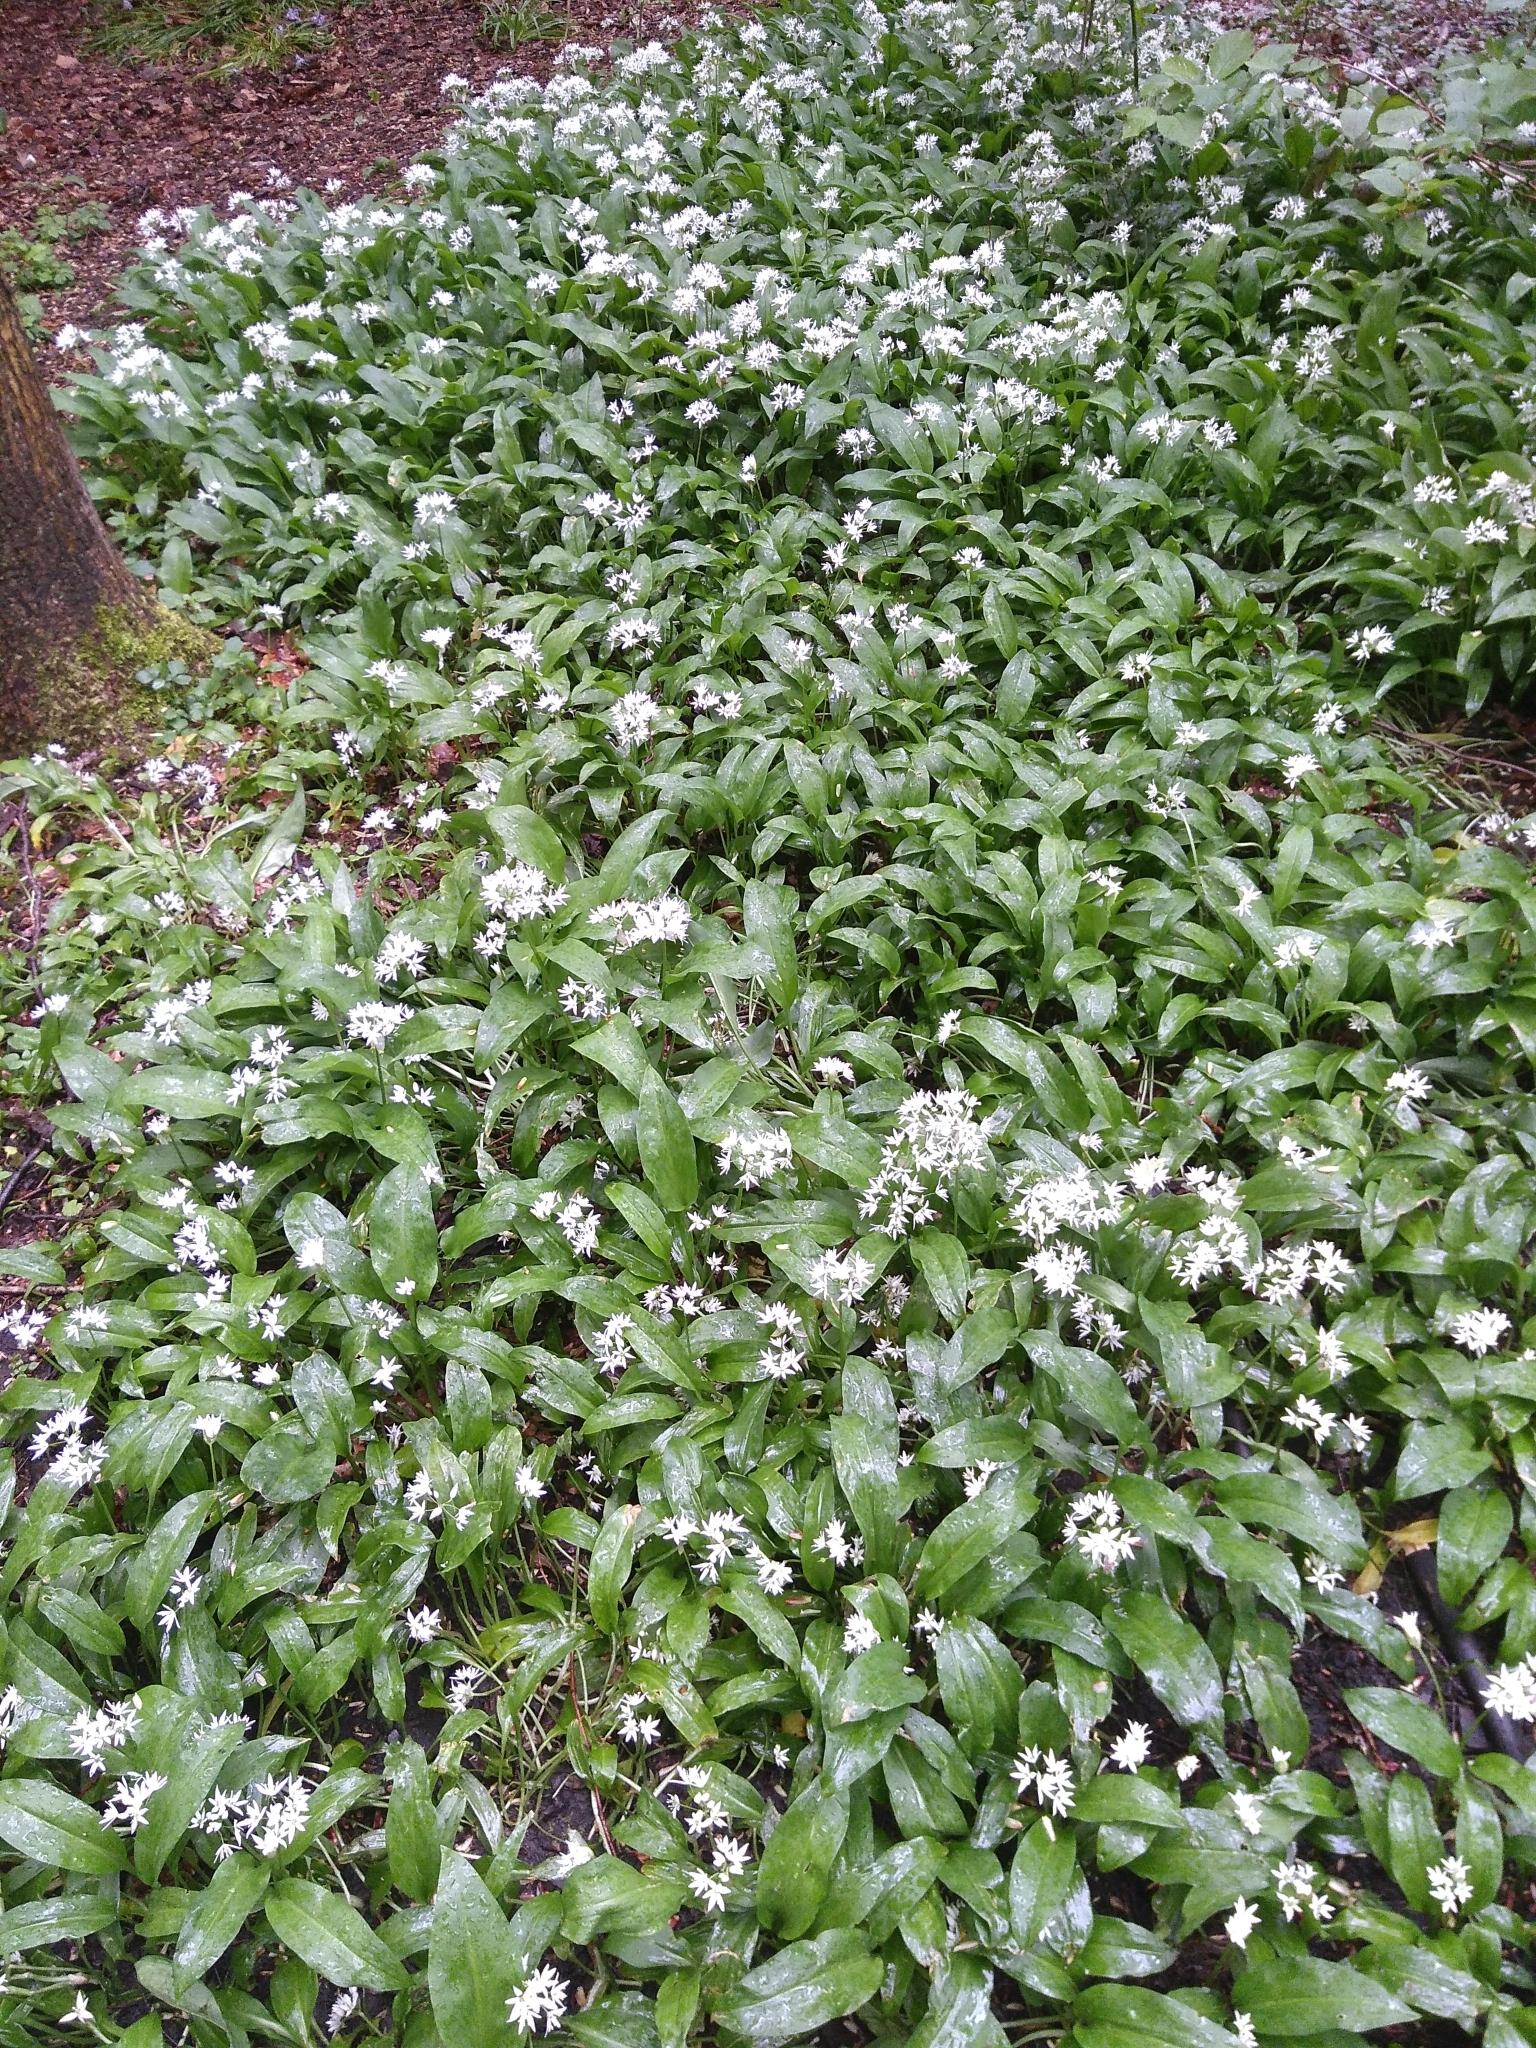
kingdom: Plantae
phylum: Tracheophyta
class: Liliopsida
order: Asparagales
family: Amaryllidaceae
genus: Allium
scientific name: Allium ursinum
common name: Ramsons
